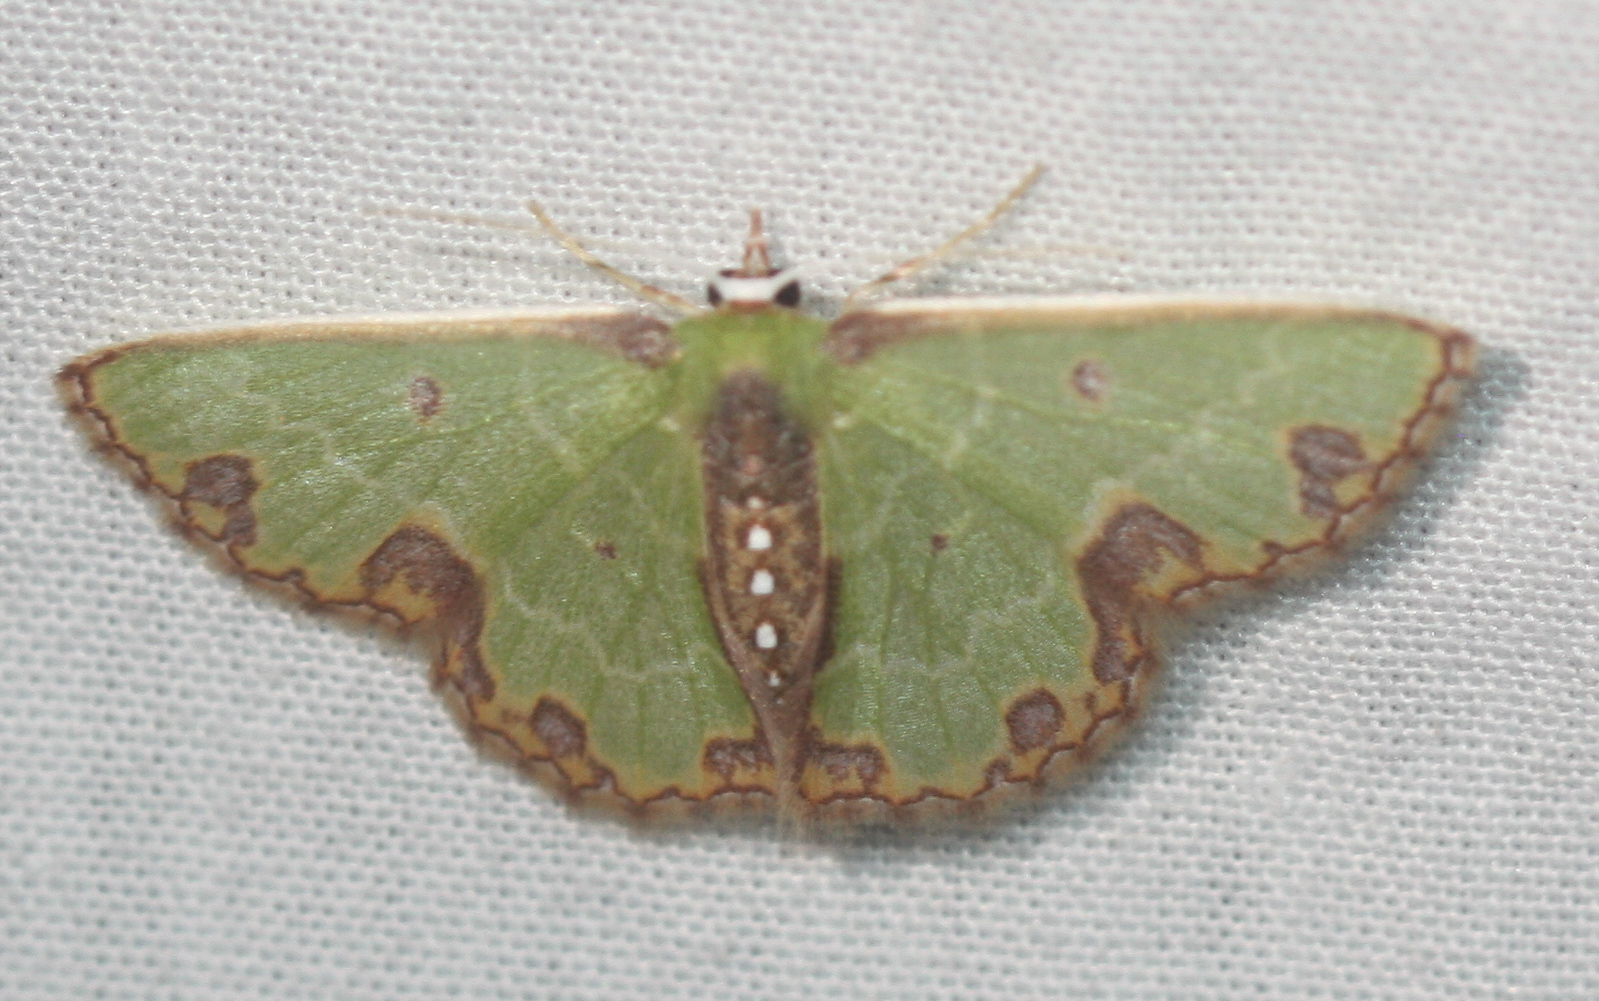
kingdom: Animalia
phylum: Arthropoda
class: Insecta
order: Lepidoptera
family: Geometridae
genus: Synchlora
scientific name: Synchlora gerularia
